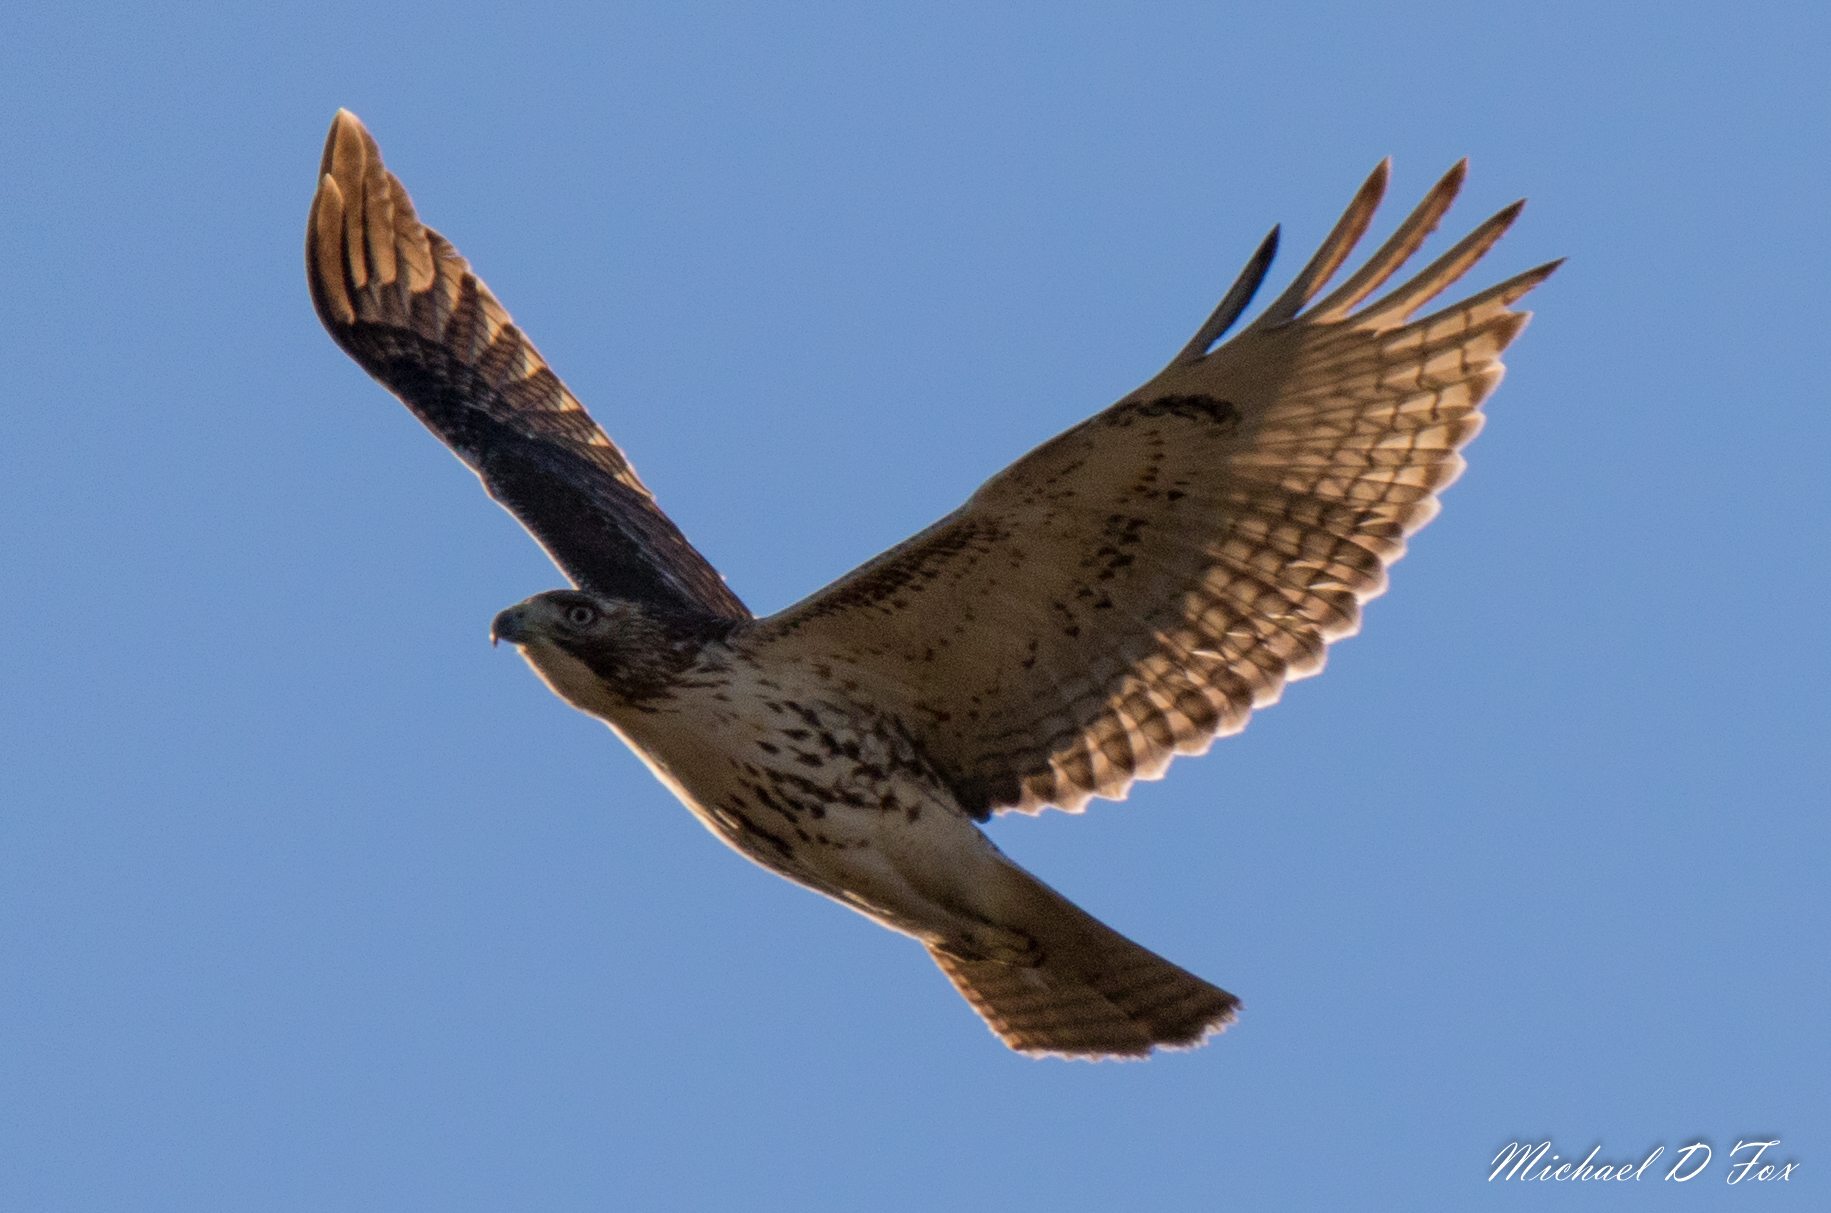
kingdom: Animalia
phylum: Chordata
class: Aves
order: Accipitriformes
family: Accipitridae
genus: Buteo
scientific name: Buteo jamaicensis
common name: Red-tailed hawk
